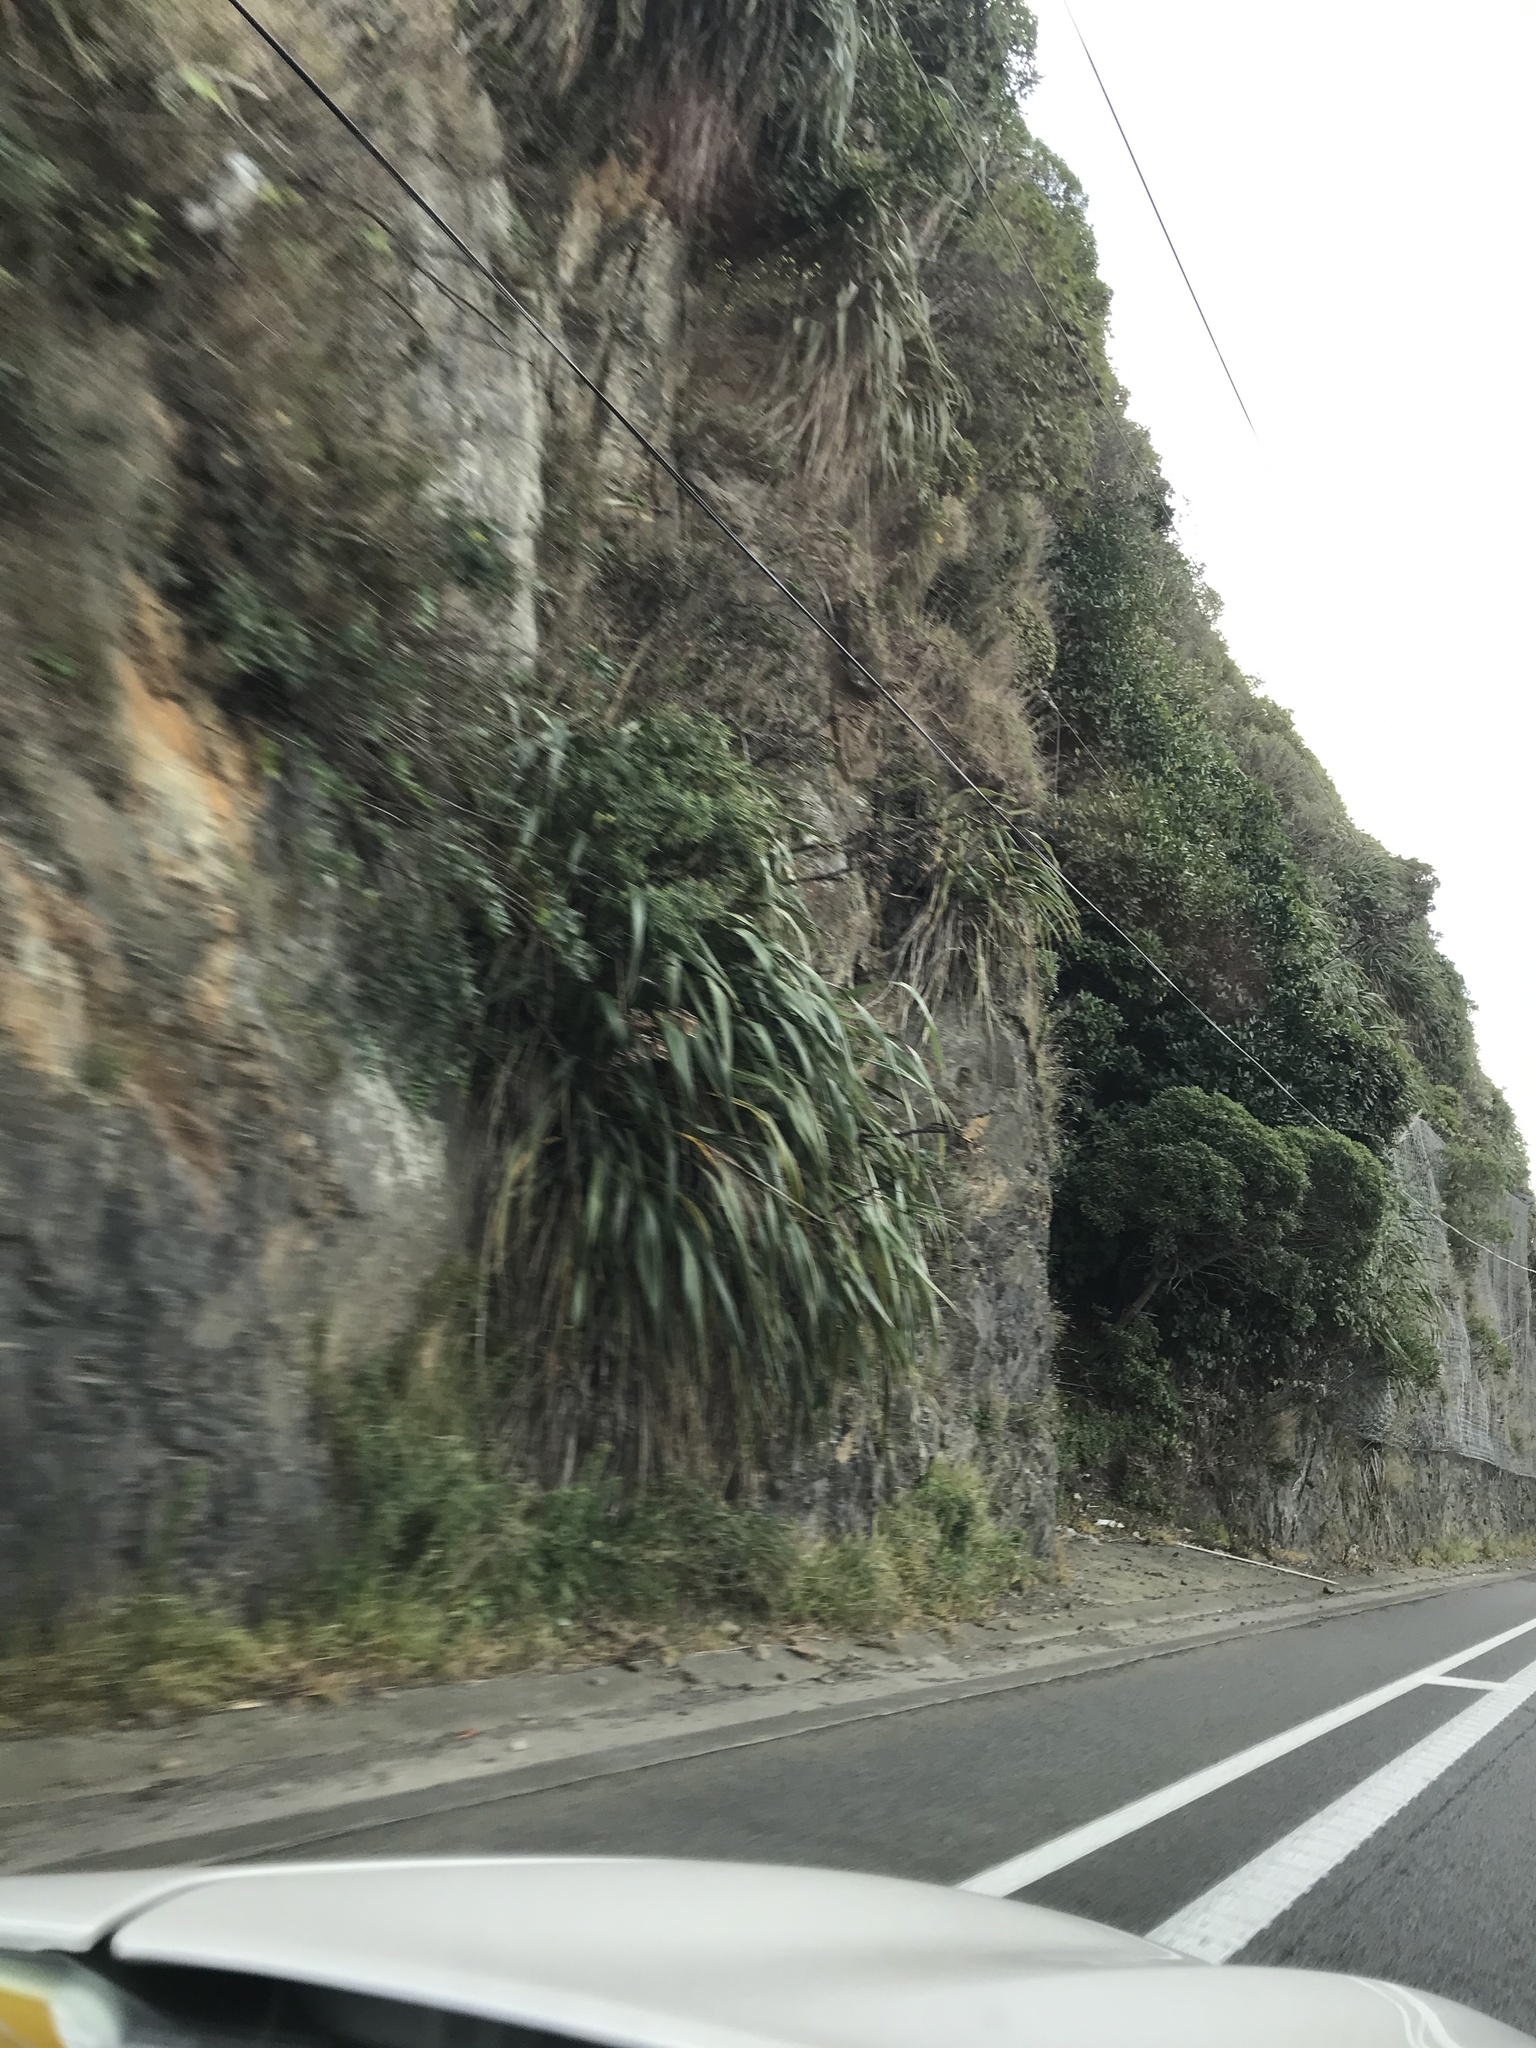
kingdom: Plantae
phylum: Tracheophyta
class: Liliopsida
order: Asparagales
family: Asphodelaceae
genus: Phormium
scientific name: Phormium colensoi
